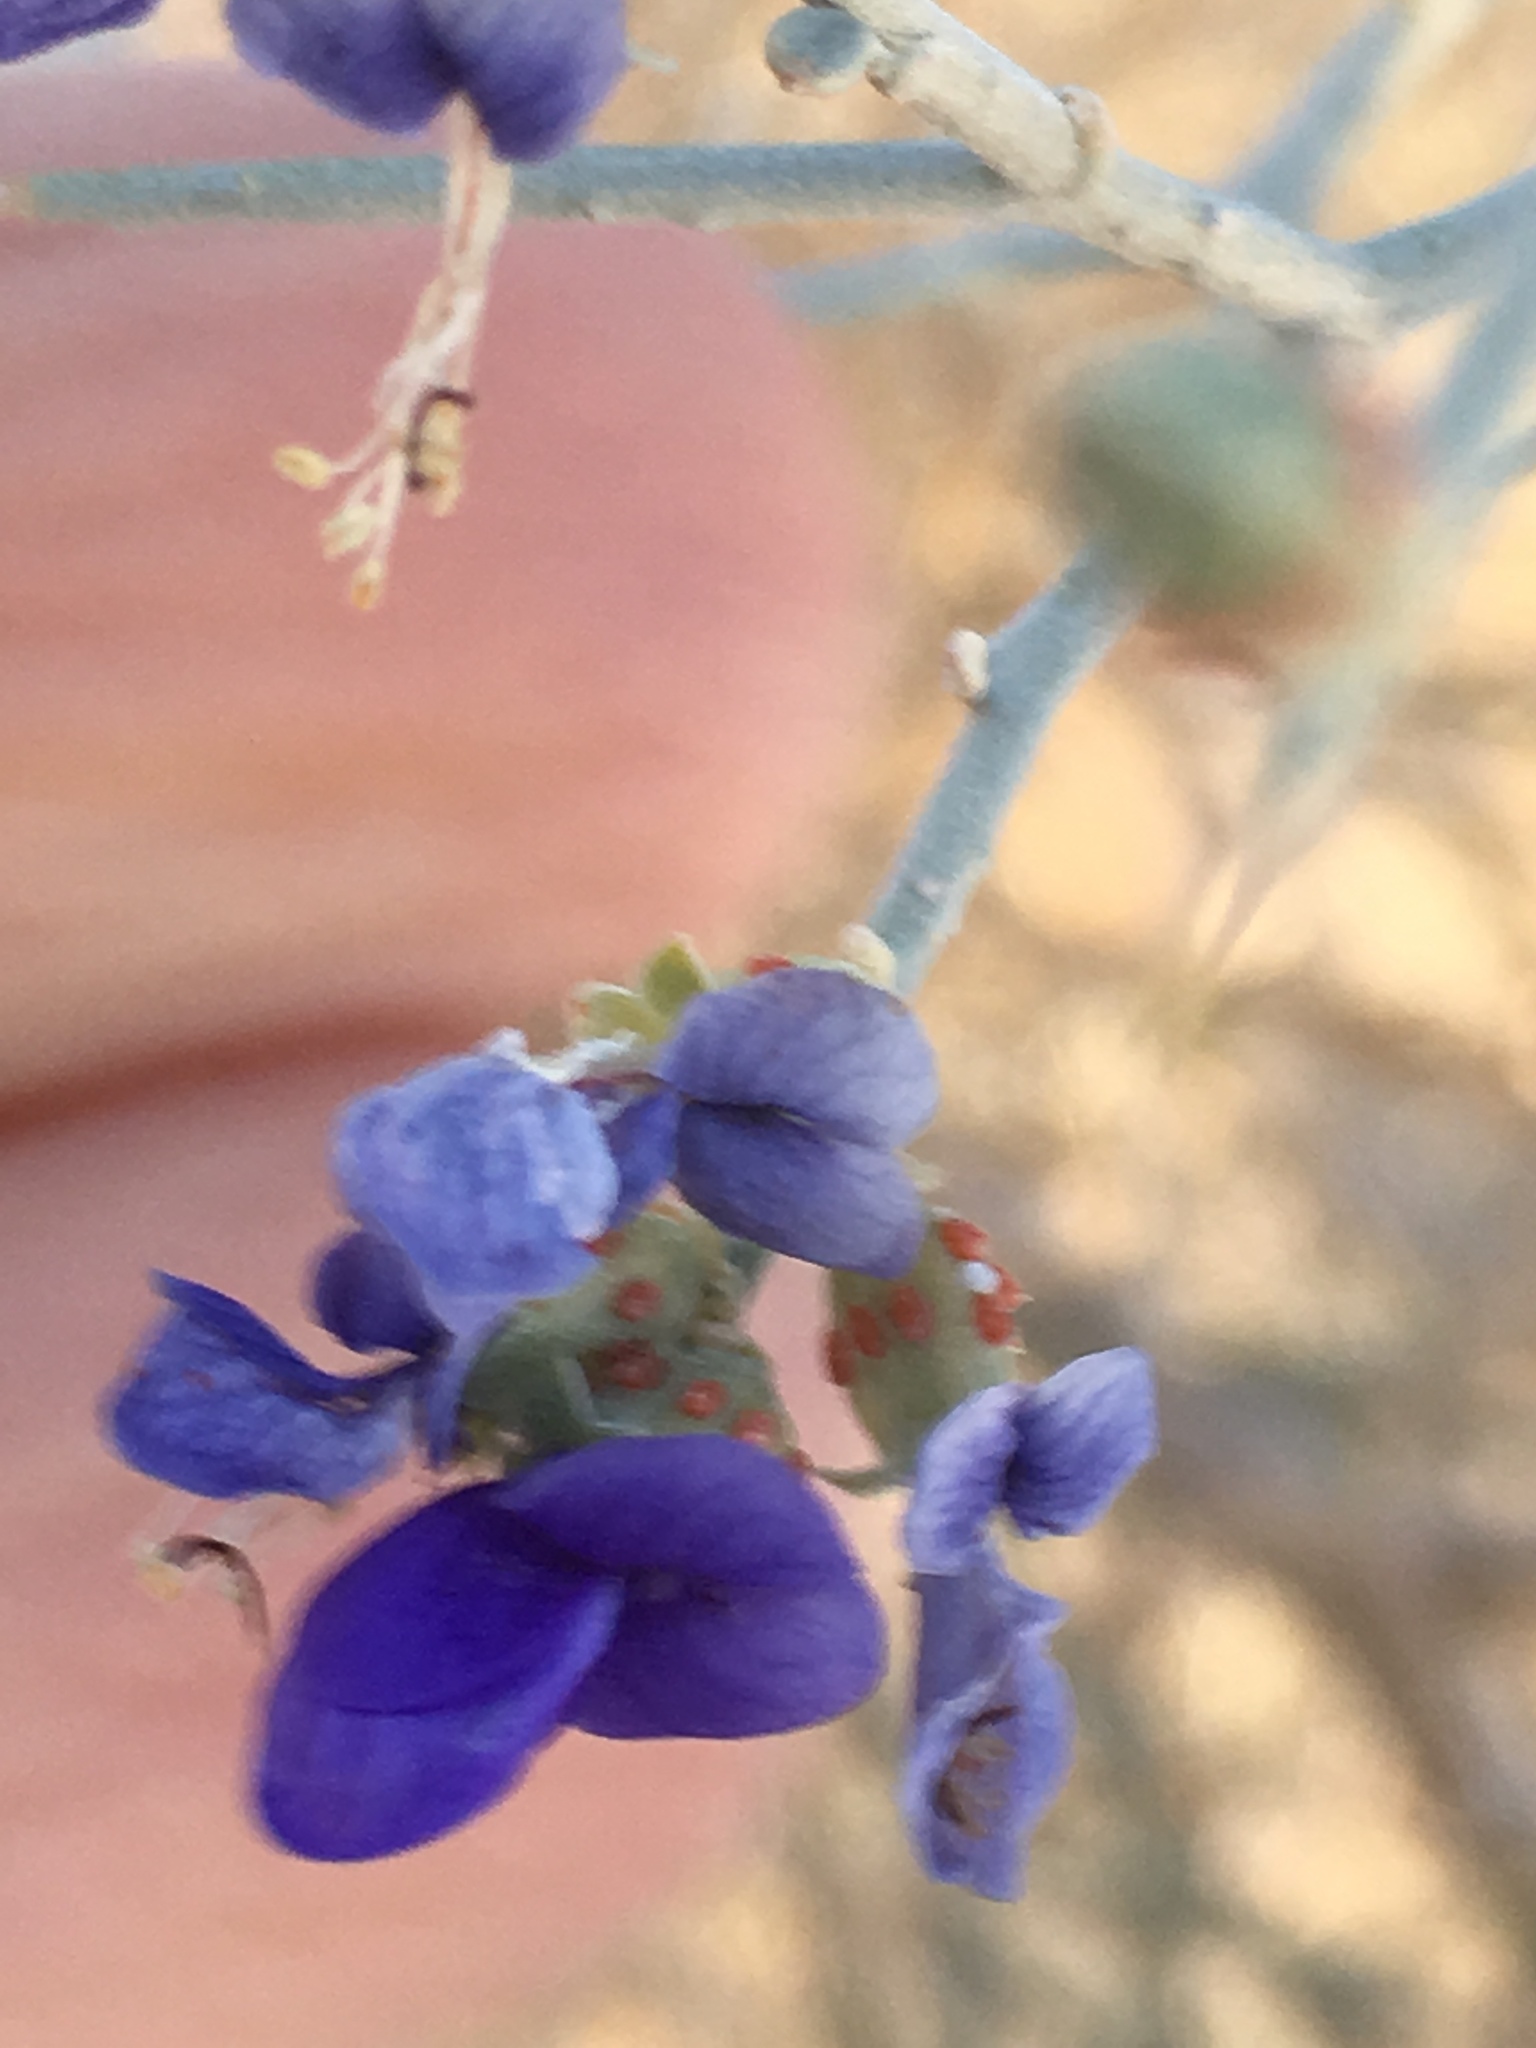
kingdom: Plantae
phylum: Tracheophyta
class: Magnoliopsida
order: Fabales
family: Fabaceae
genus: Psorothamnus
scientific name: Psorothamnus spinosus
